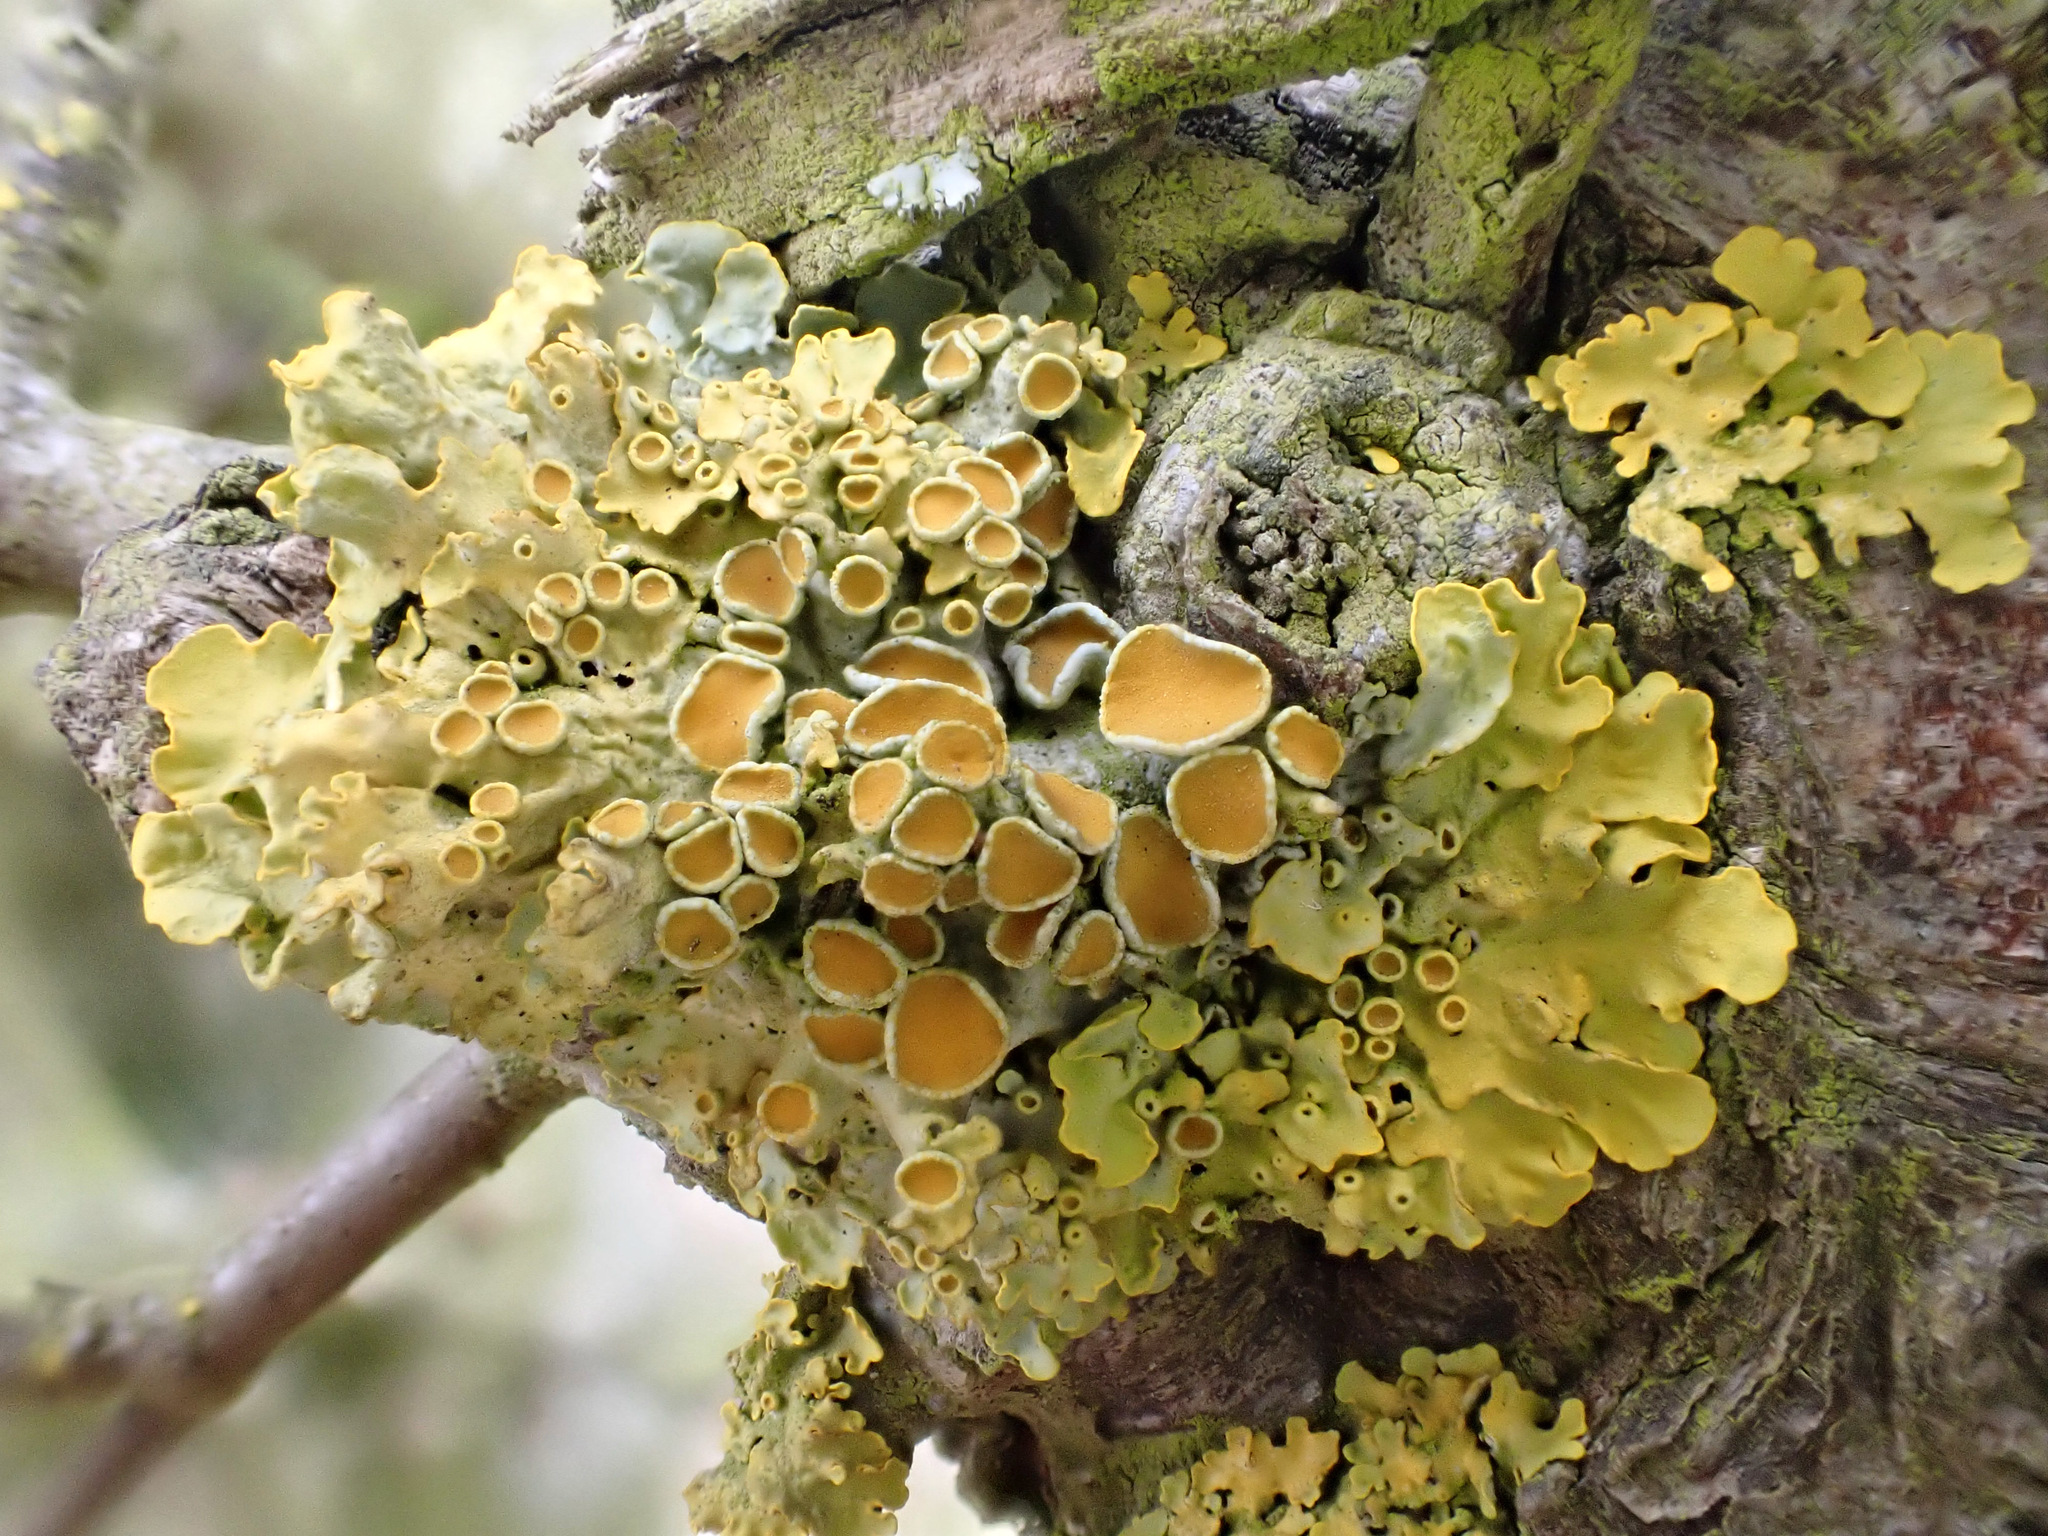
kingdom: Fungi
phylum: Ascomycota
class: Lecanoromycetes
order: Teloschistales
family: Teloschistaceae
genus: Xanthoria
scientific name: Xanthoria parietina
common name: Common orange lichen
